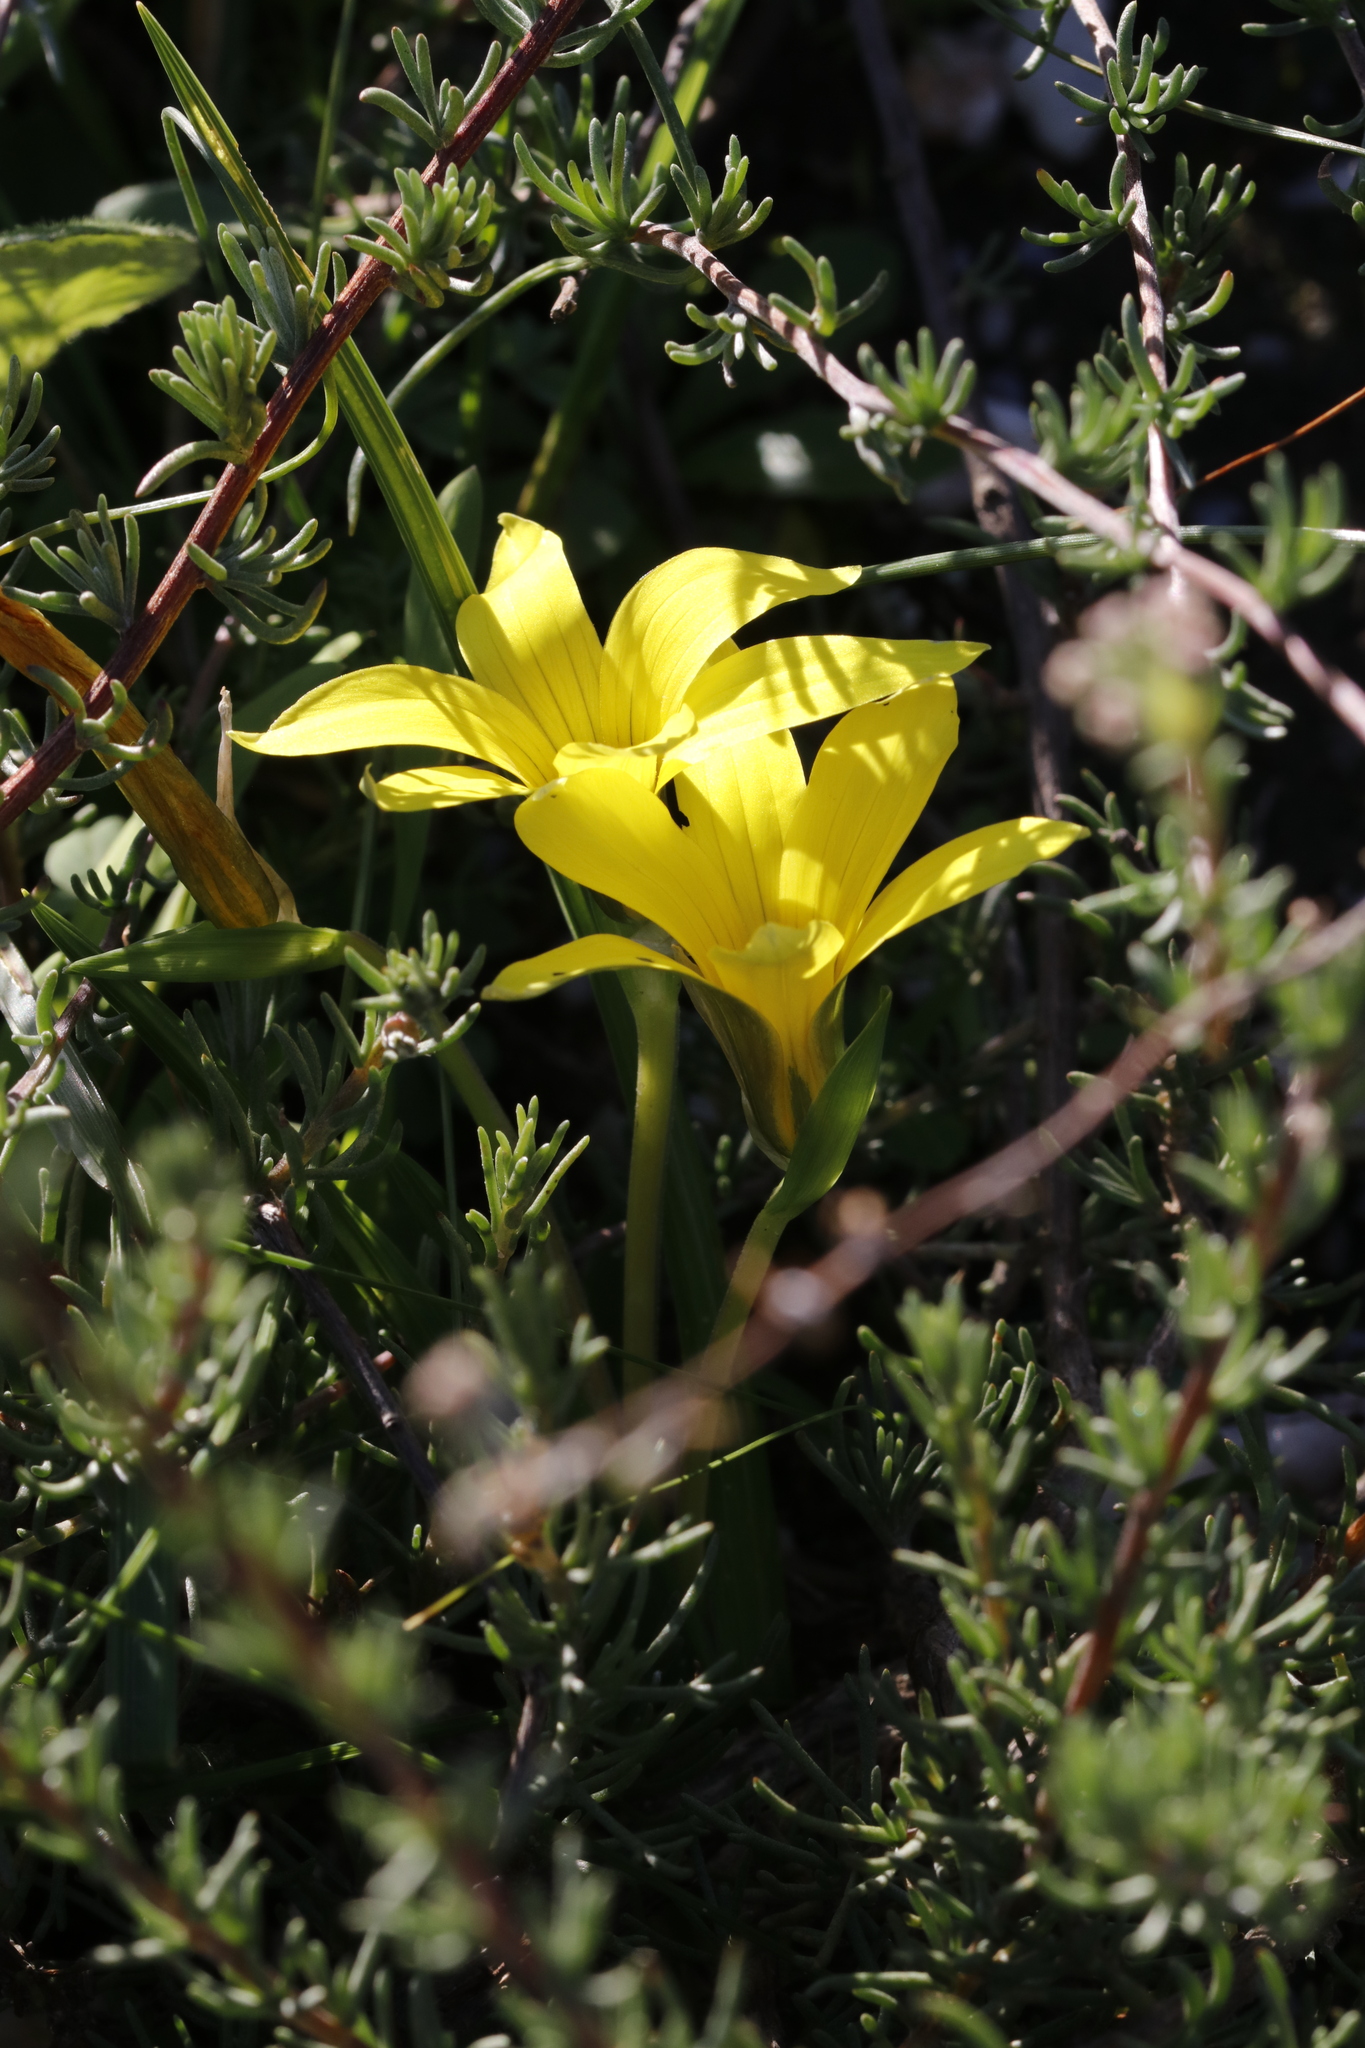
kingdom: Plantae
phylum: Tracheophyta
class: Liliopsida
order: Asparagales
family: Iridaceae
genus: Romulea
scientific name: Romulea flava
